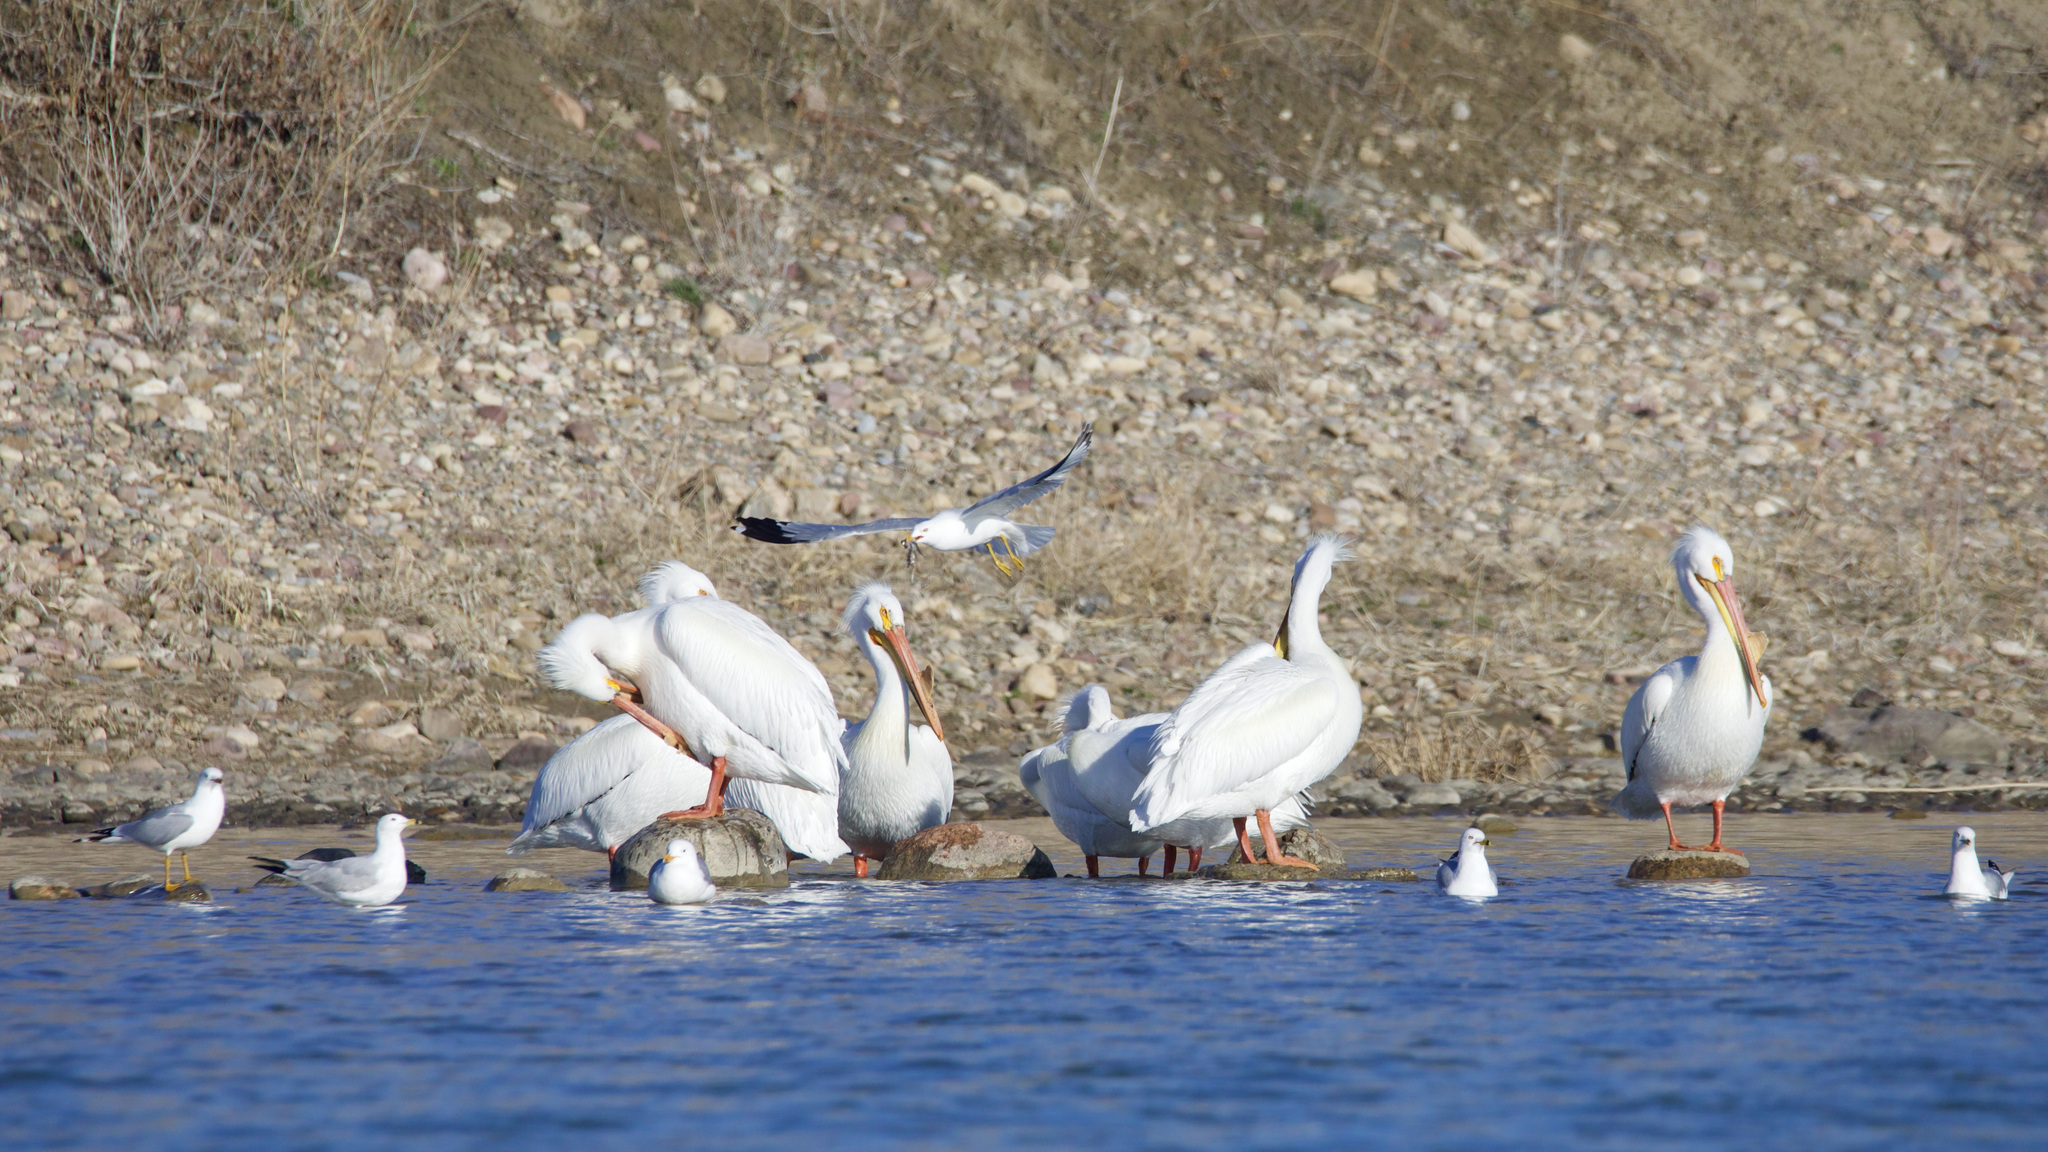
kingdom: Animalia
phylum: Chordata
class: Aves
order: Pelecaniformes
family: Pelecanidae
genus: Pelecanus
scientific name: Pelecanus erythrorhynchos
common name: American white pelican
